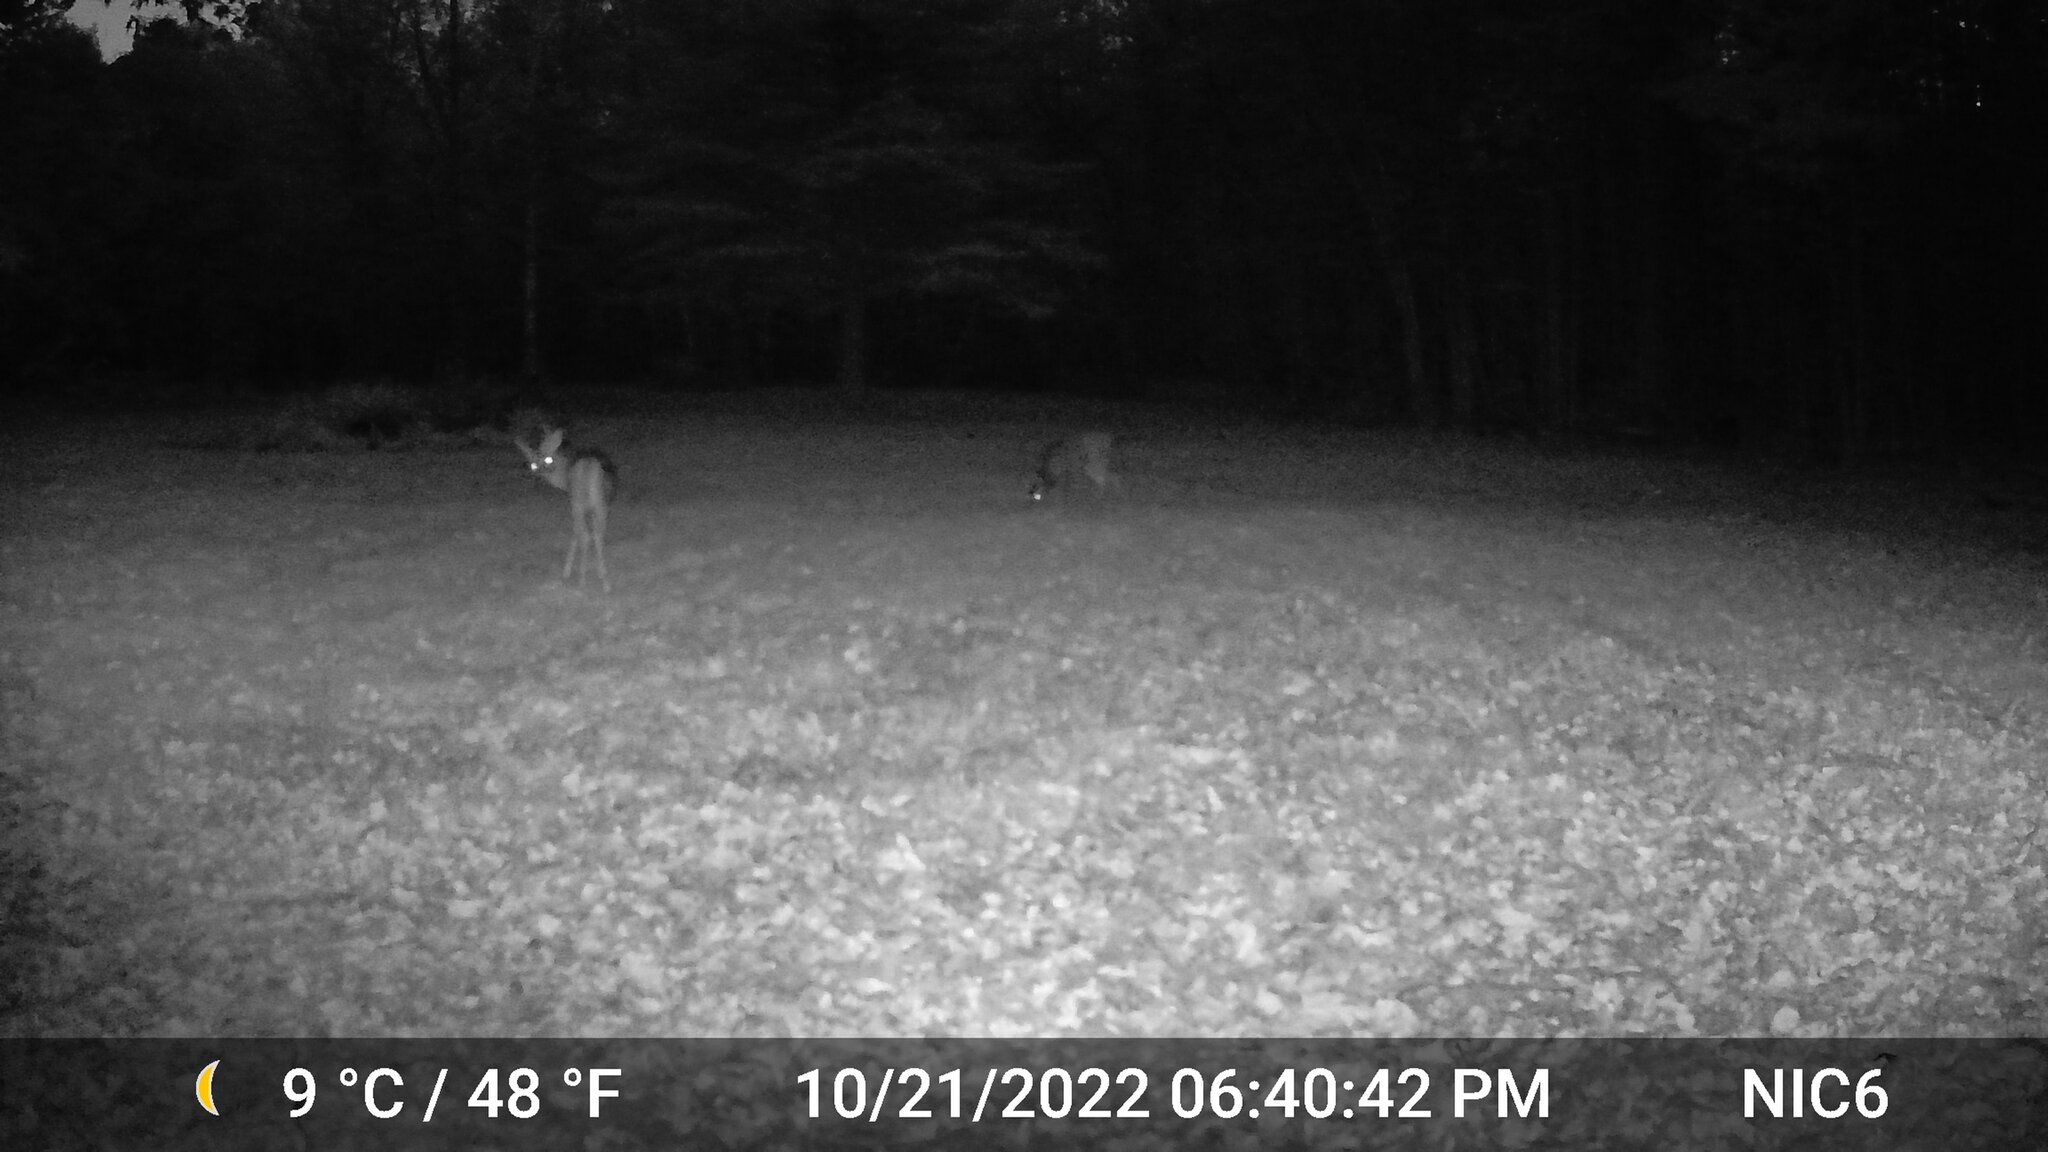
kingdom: Animalia
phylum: Chordata
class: Mammalia
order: Artiodactyla
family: Cervidae
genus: Odocoileus
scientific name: Odocoileus virginianus
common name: White-tailed deer
